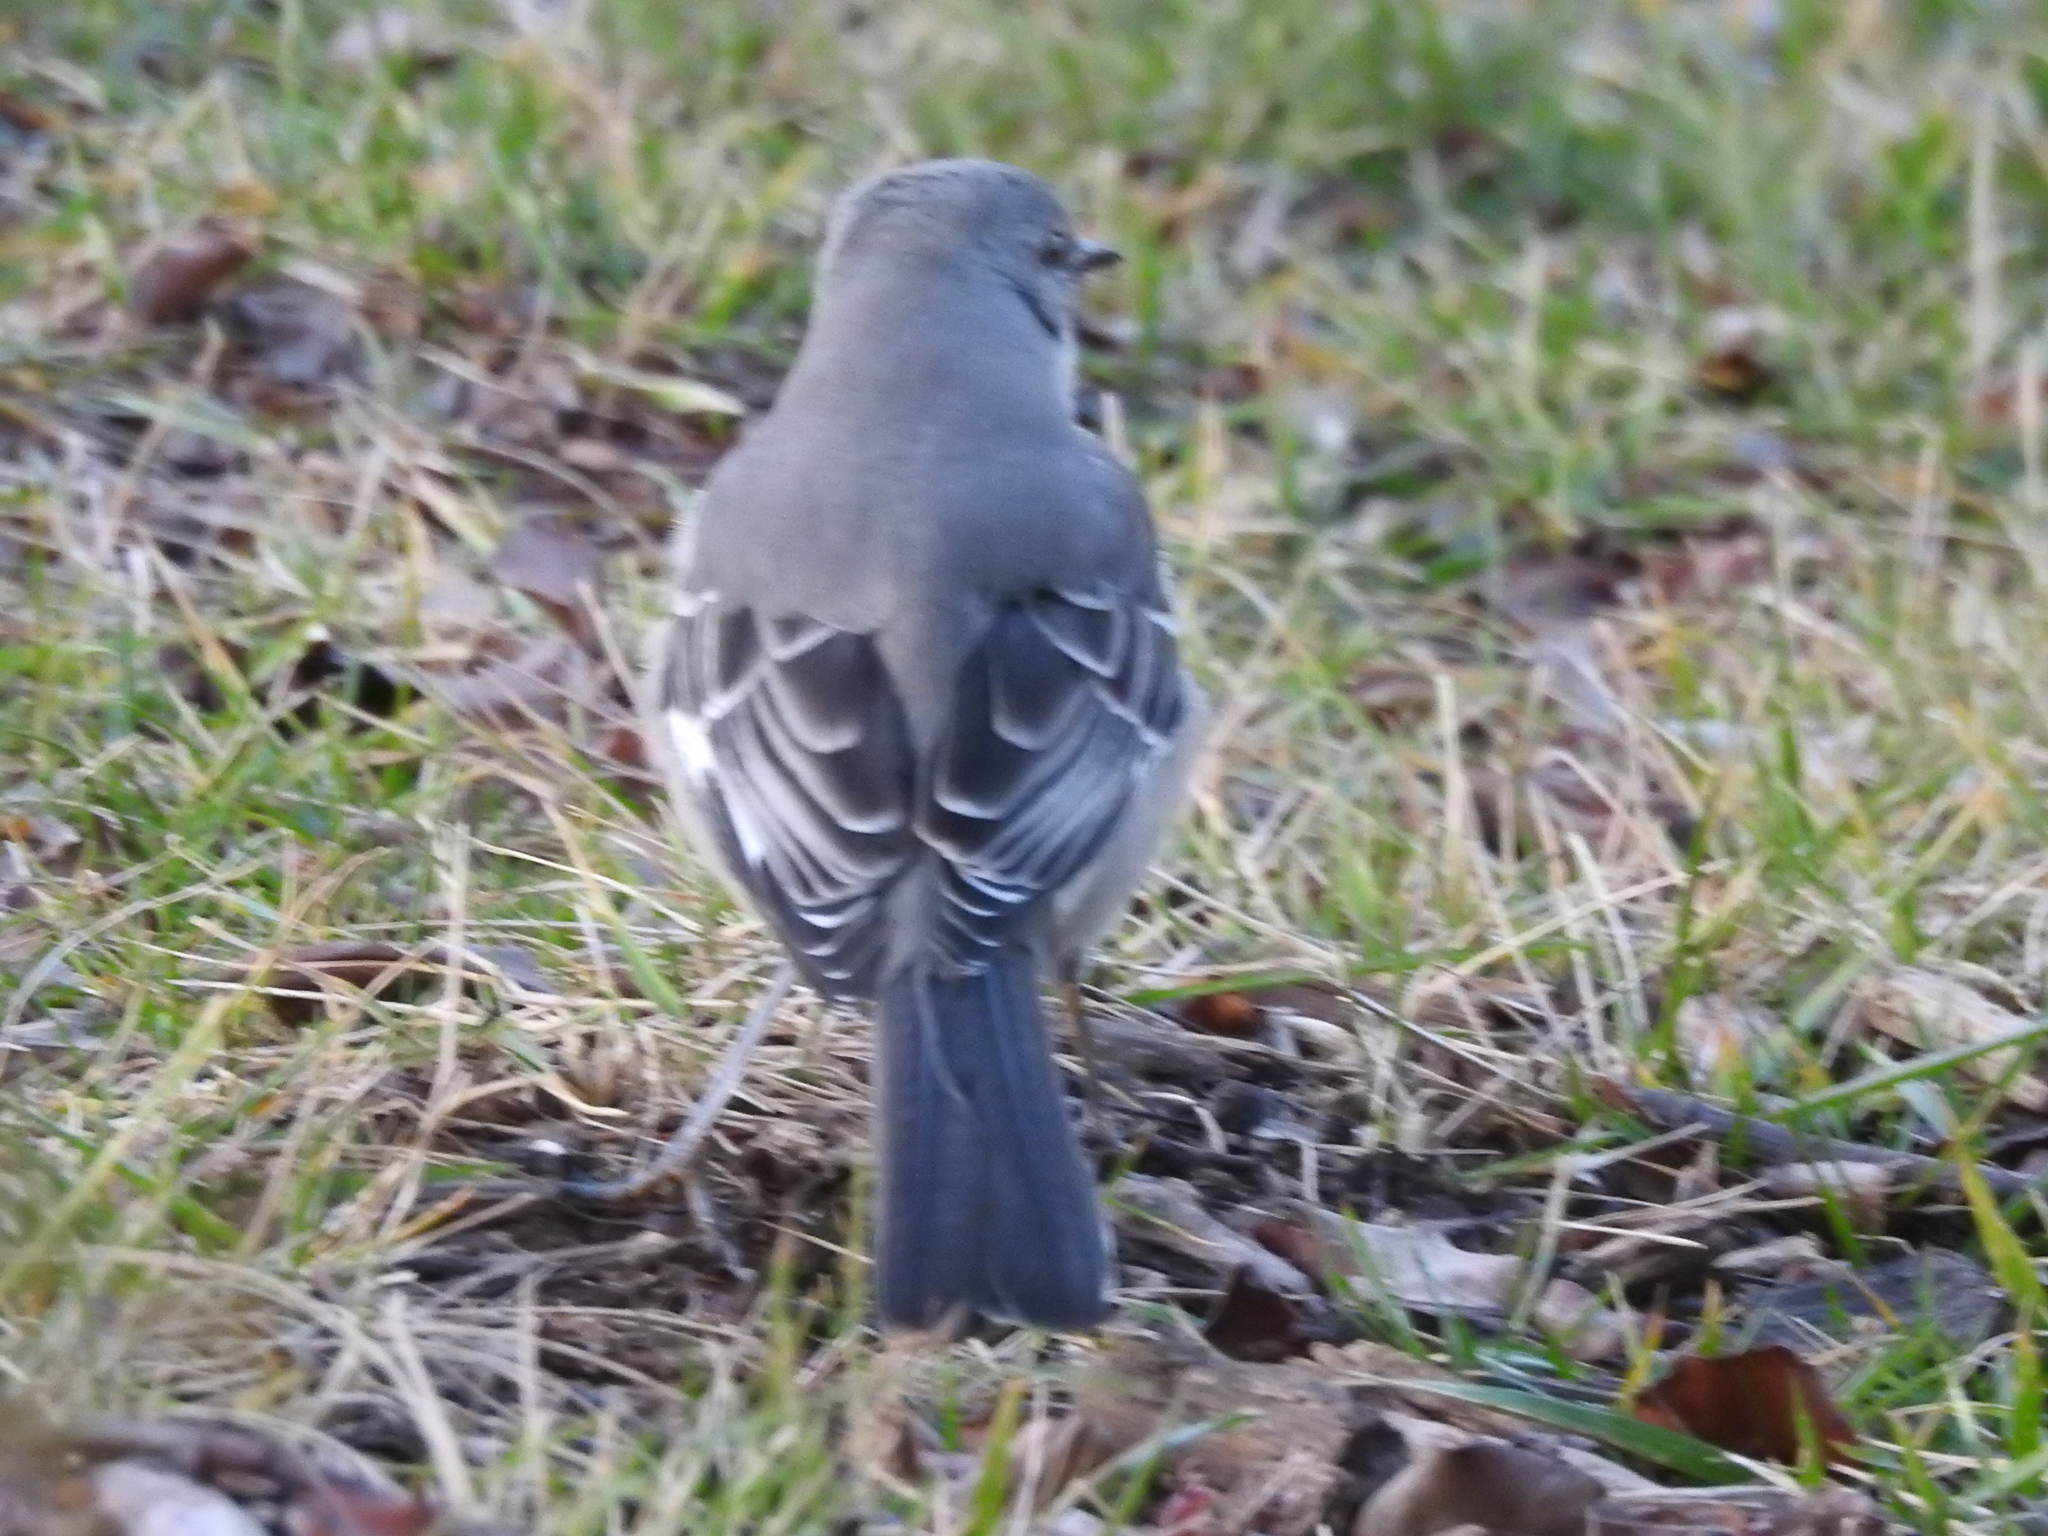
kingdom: Animalia
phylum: Chordata
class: Aves
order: Passeriformes
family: Mimidae
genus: Mimus
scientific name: Mimus polyglottos
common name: Northern mockingbird
